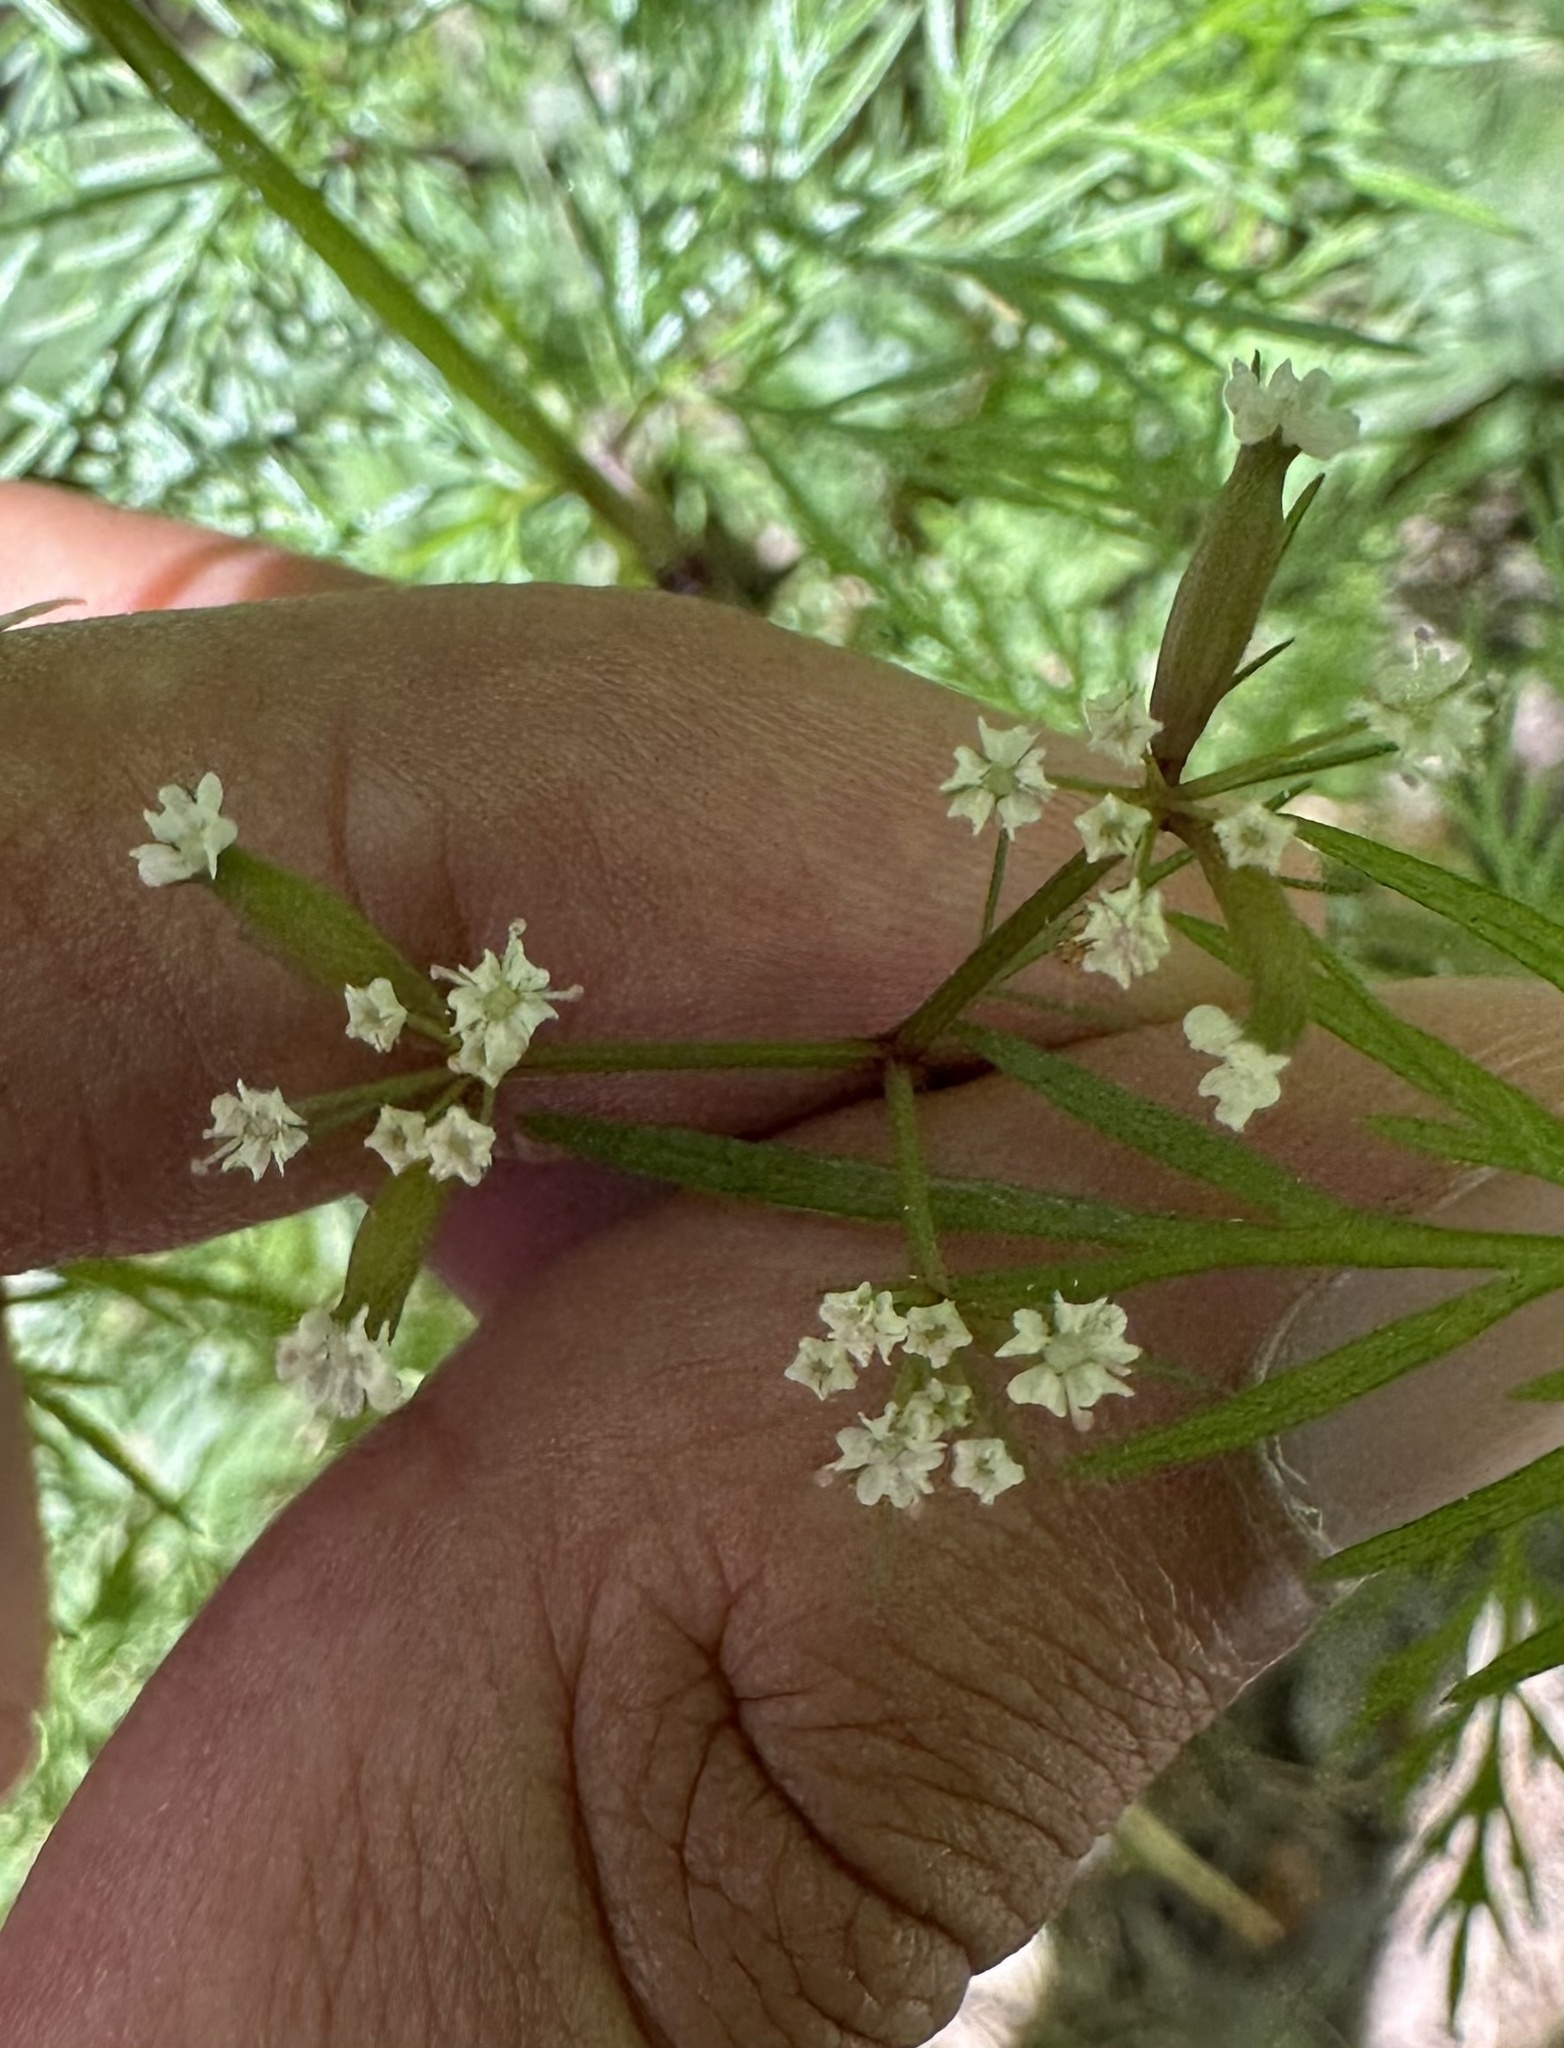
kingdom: Plantae
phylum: Tracheophyta
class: Magnoliopsida
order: Apiales
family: Apiaceae
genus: Trepocarpus
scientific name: Trepocarpus aethusae
